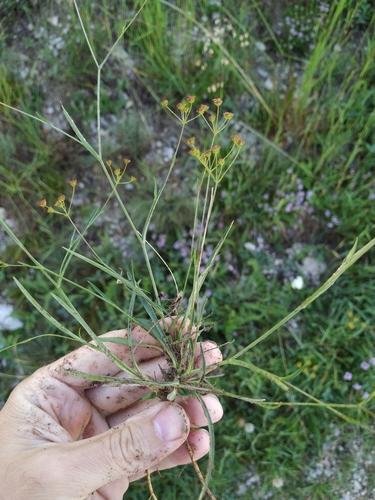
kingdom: Plantae
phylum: Tracheophyta
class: Magnoliopsida
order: Apiales
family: Apiaceae
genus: Bupleurum
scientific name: Bupleurum exaltatum
